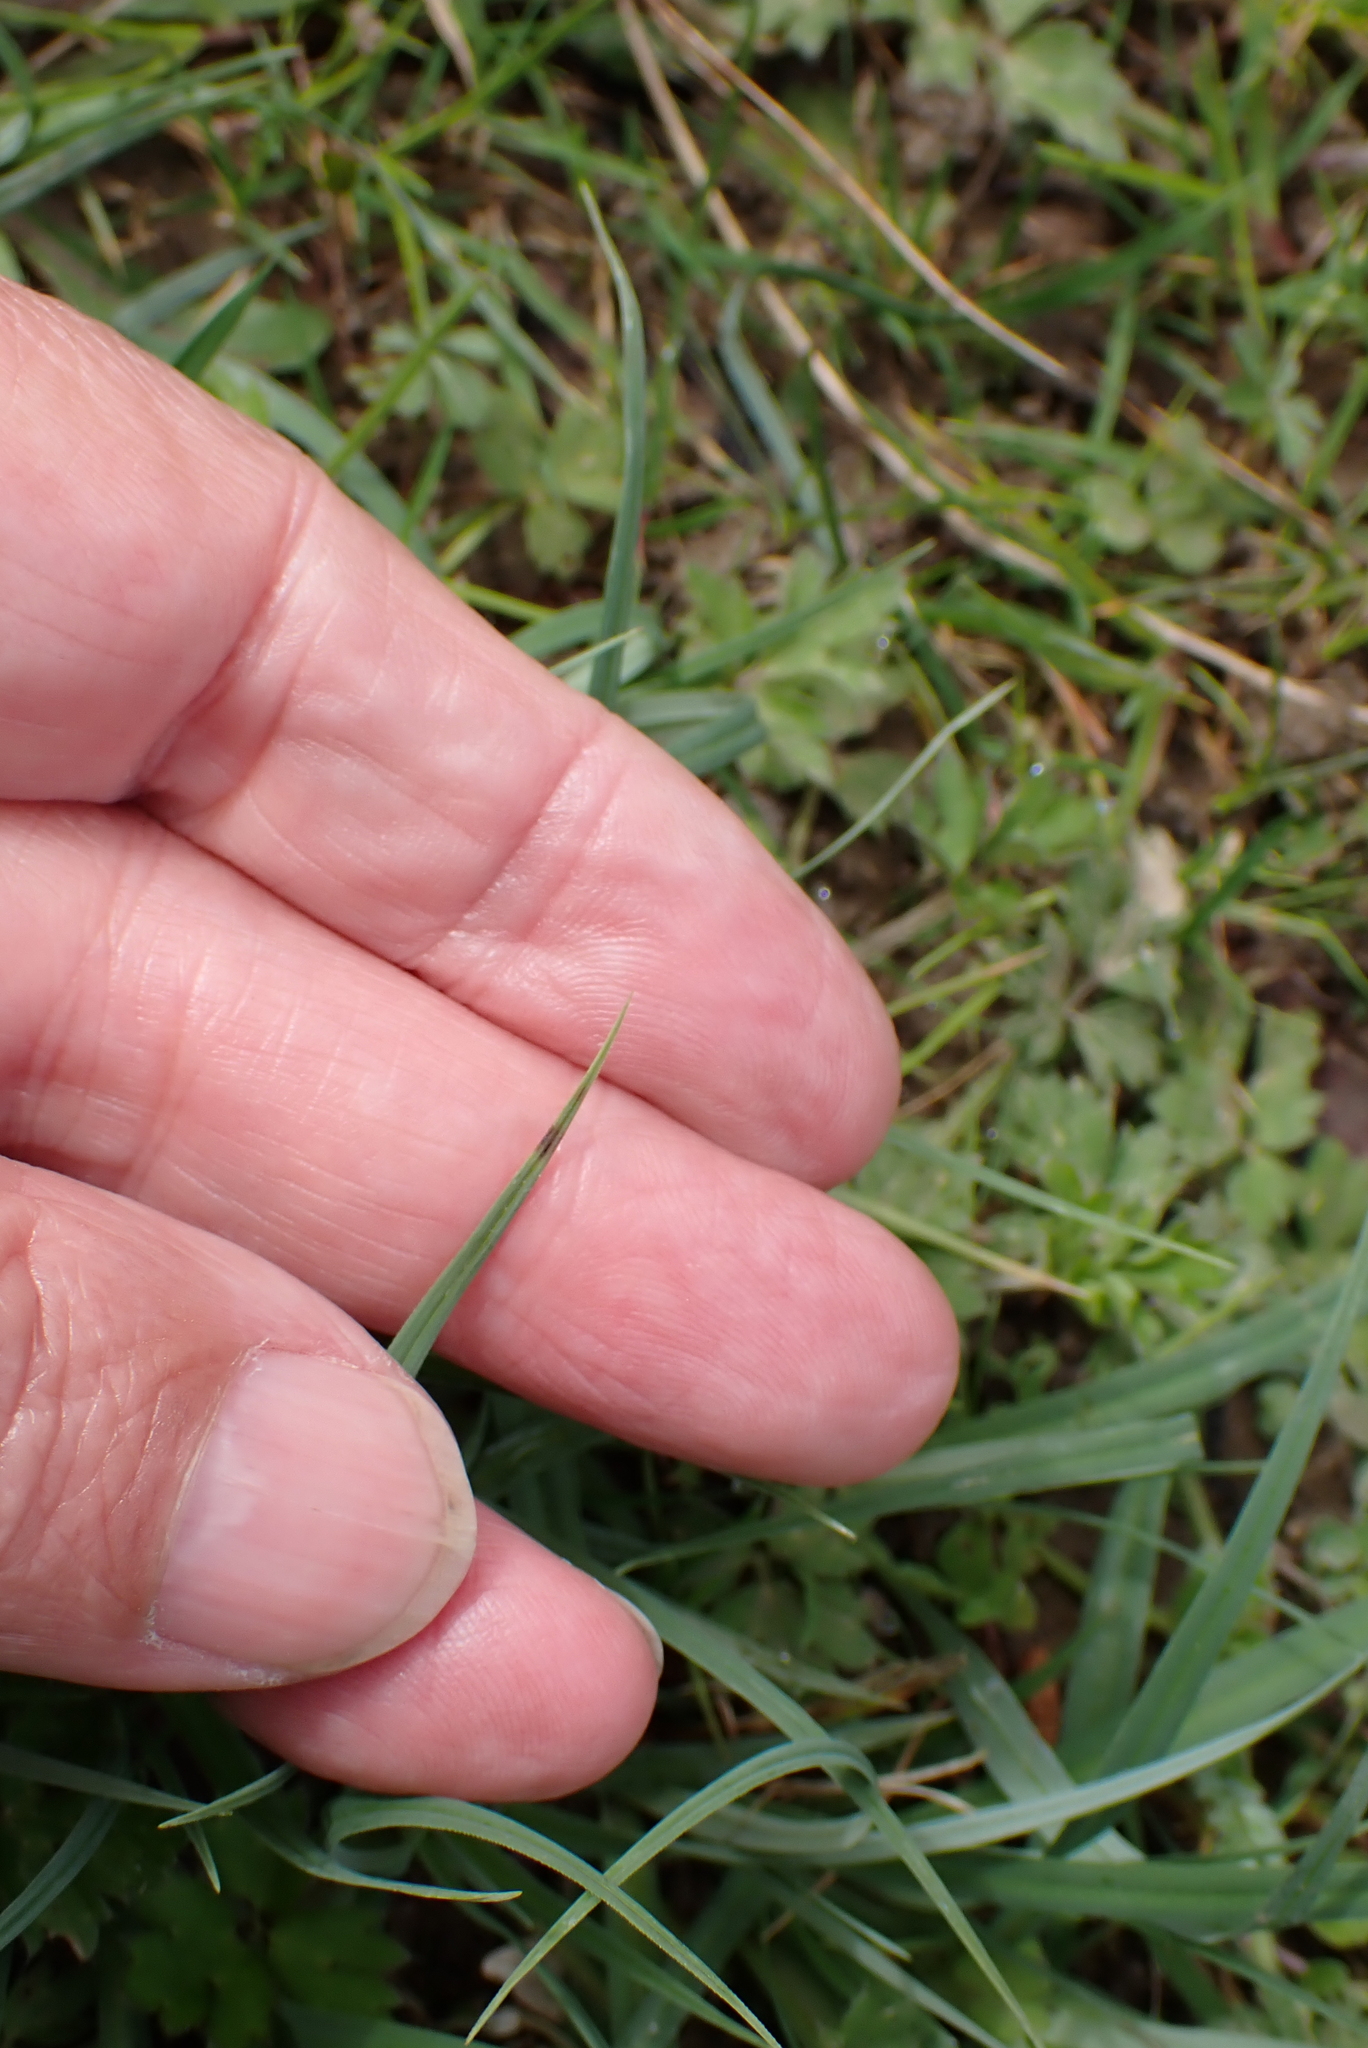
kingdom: Plantae
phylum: Tracheophyta
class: Liliopsida
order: Poales
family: Cyperaceae
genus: Carex
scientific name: Carex flacca
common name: Glaucous sedge
